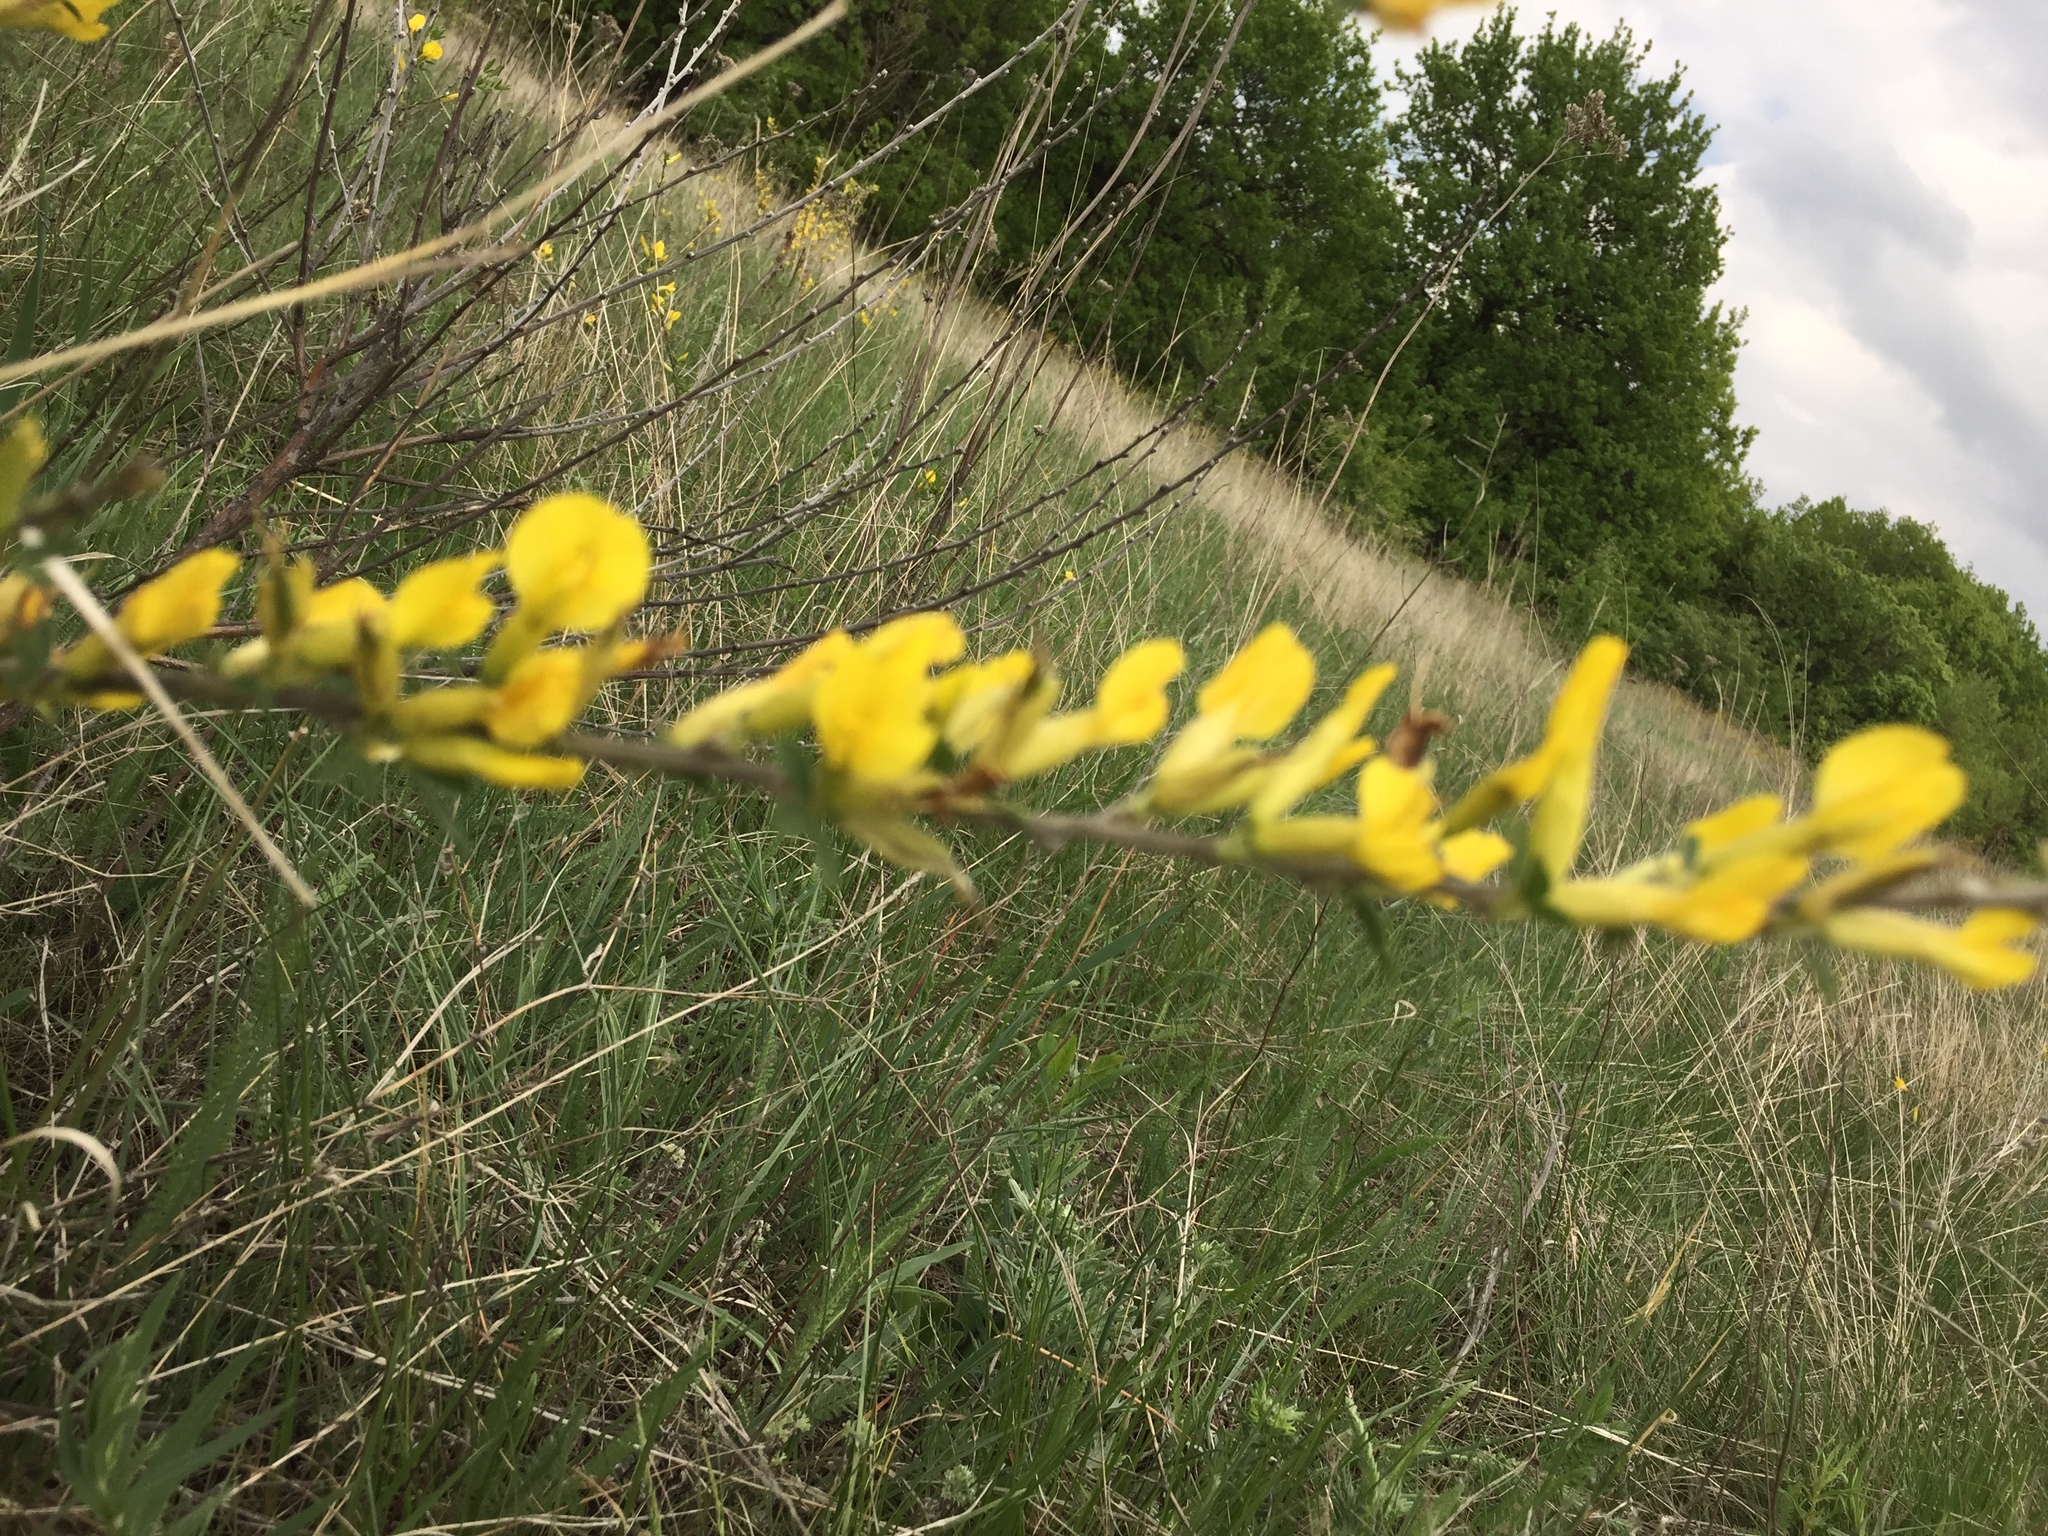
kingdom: Plantae
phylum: Tracheophyta
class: Magnoliopsida
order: Fabales
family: Fabaceae
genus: Chamaecytisus
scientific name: Chamaecytisus ruthenicus
